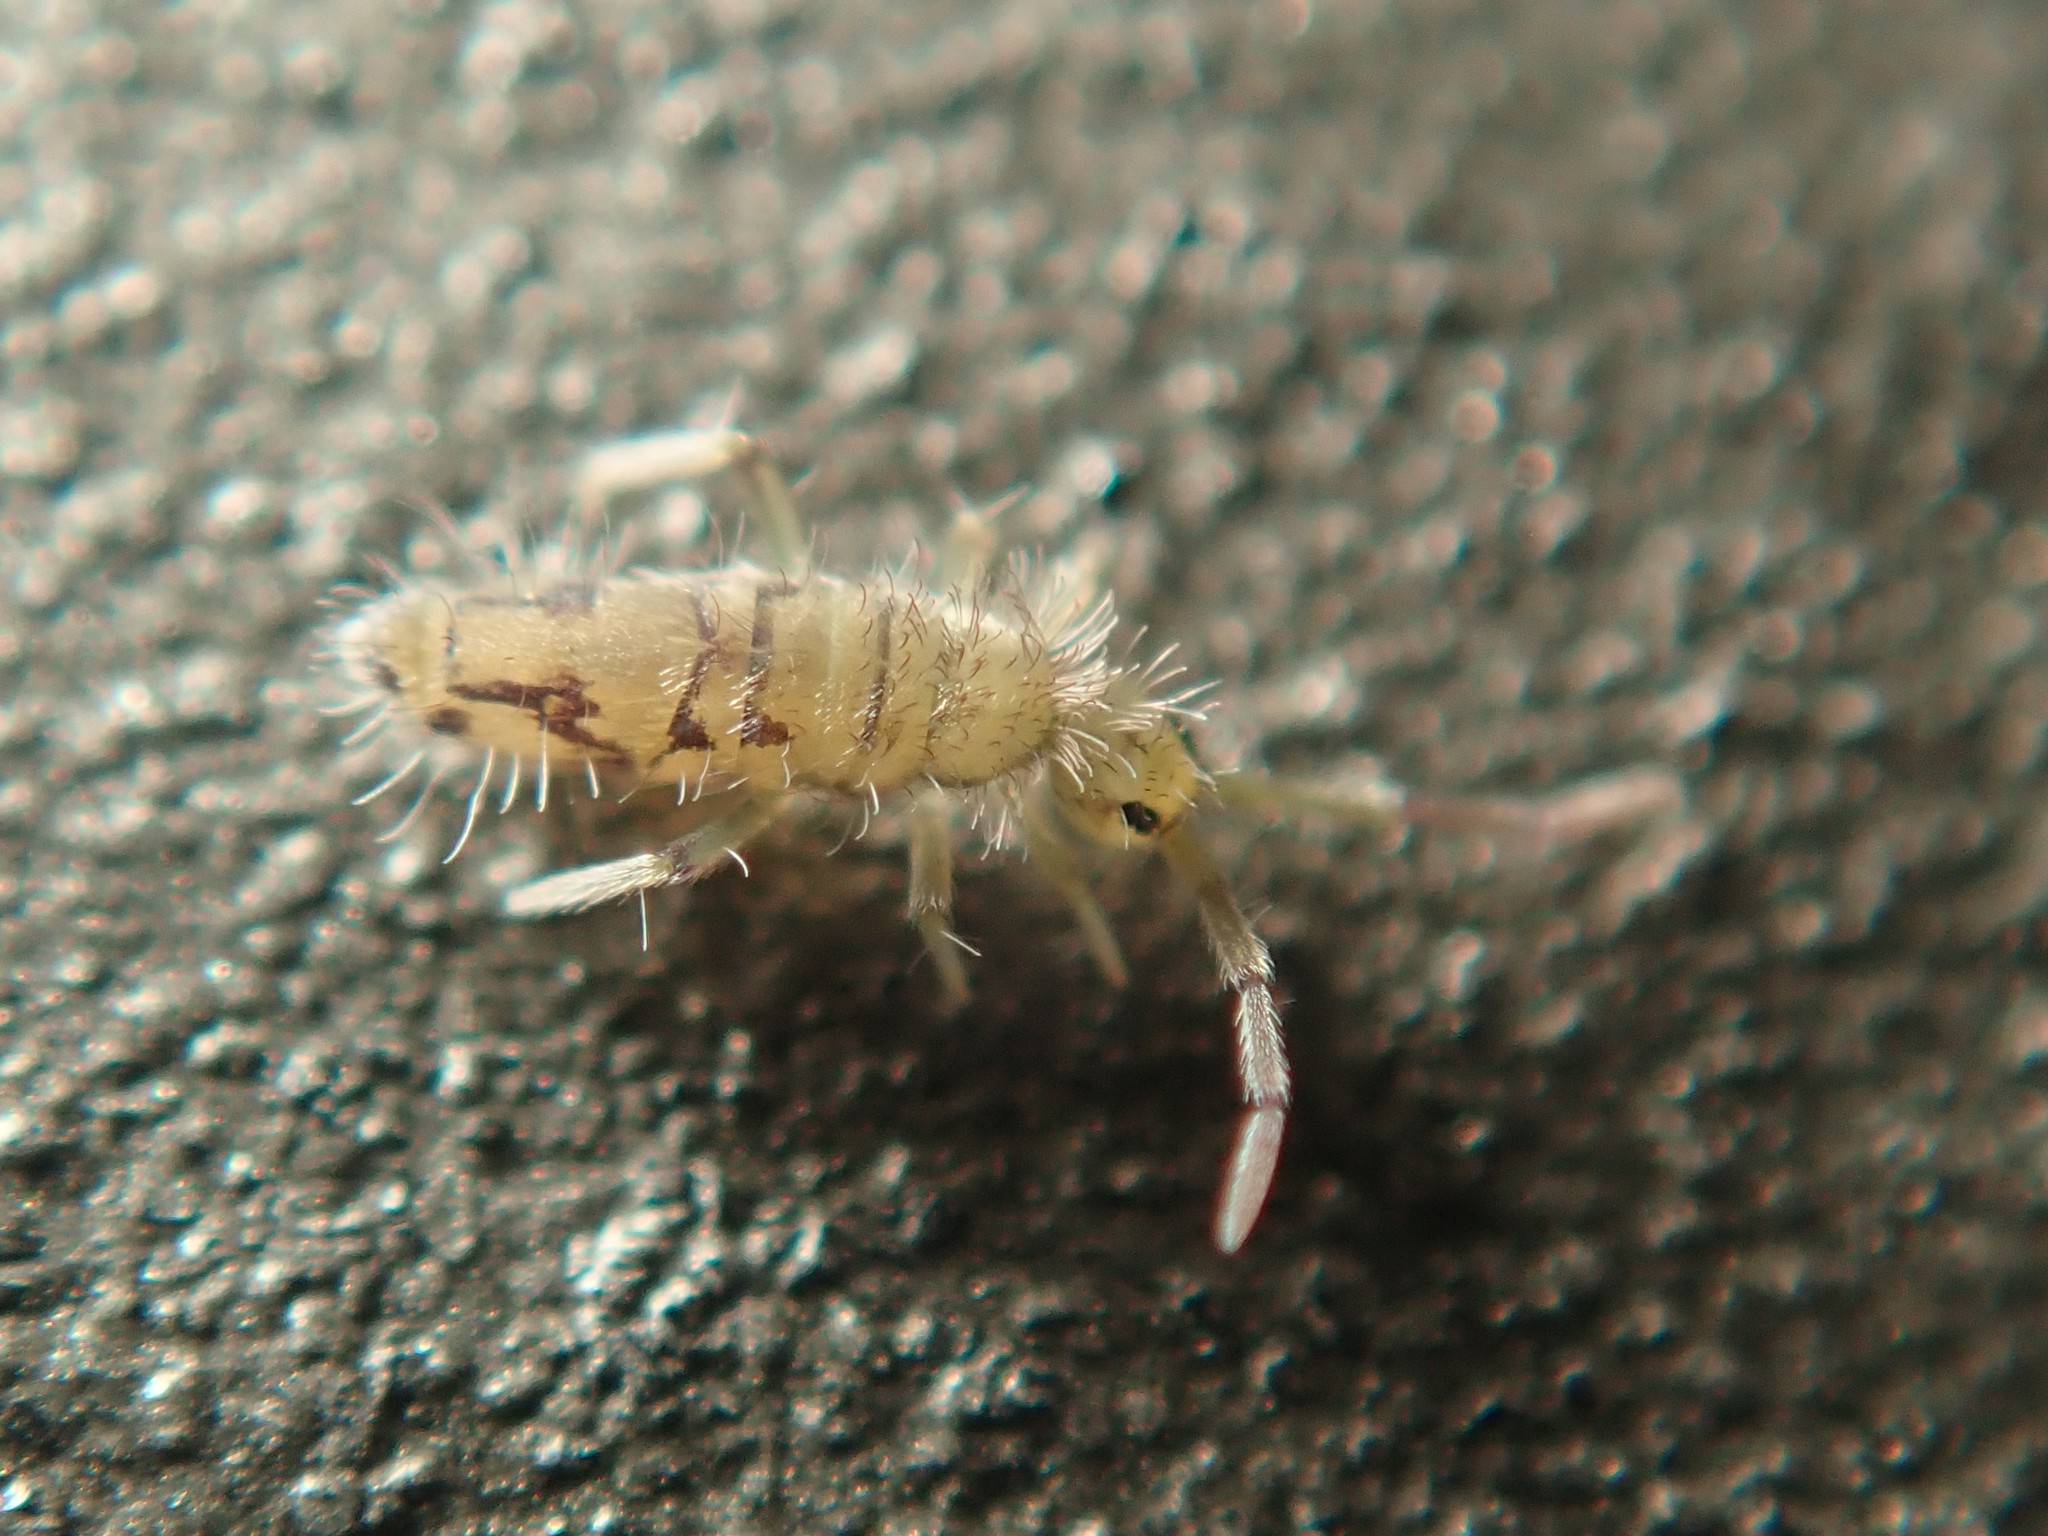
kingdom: Animalia
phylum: Arthropoda
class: Collembola
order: Entomobryomorpha
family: Entomobryidae
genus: Entomobrya
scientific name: Entomobrya nivalis
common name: Cosmopolitan springtail
